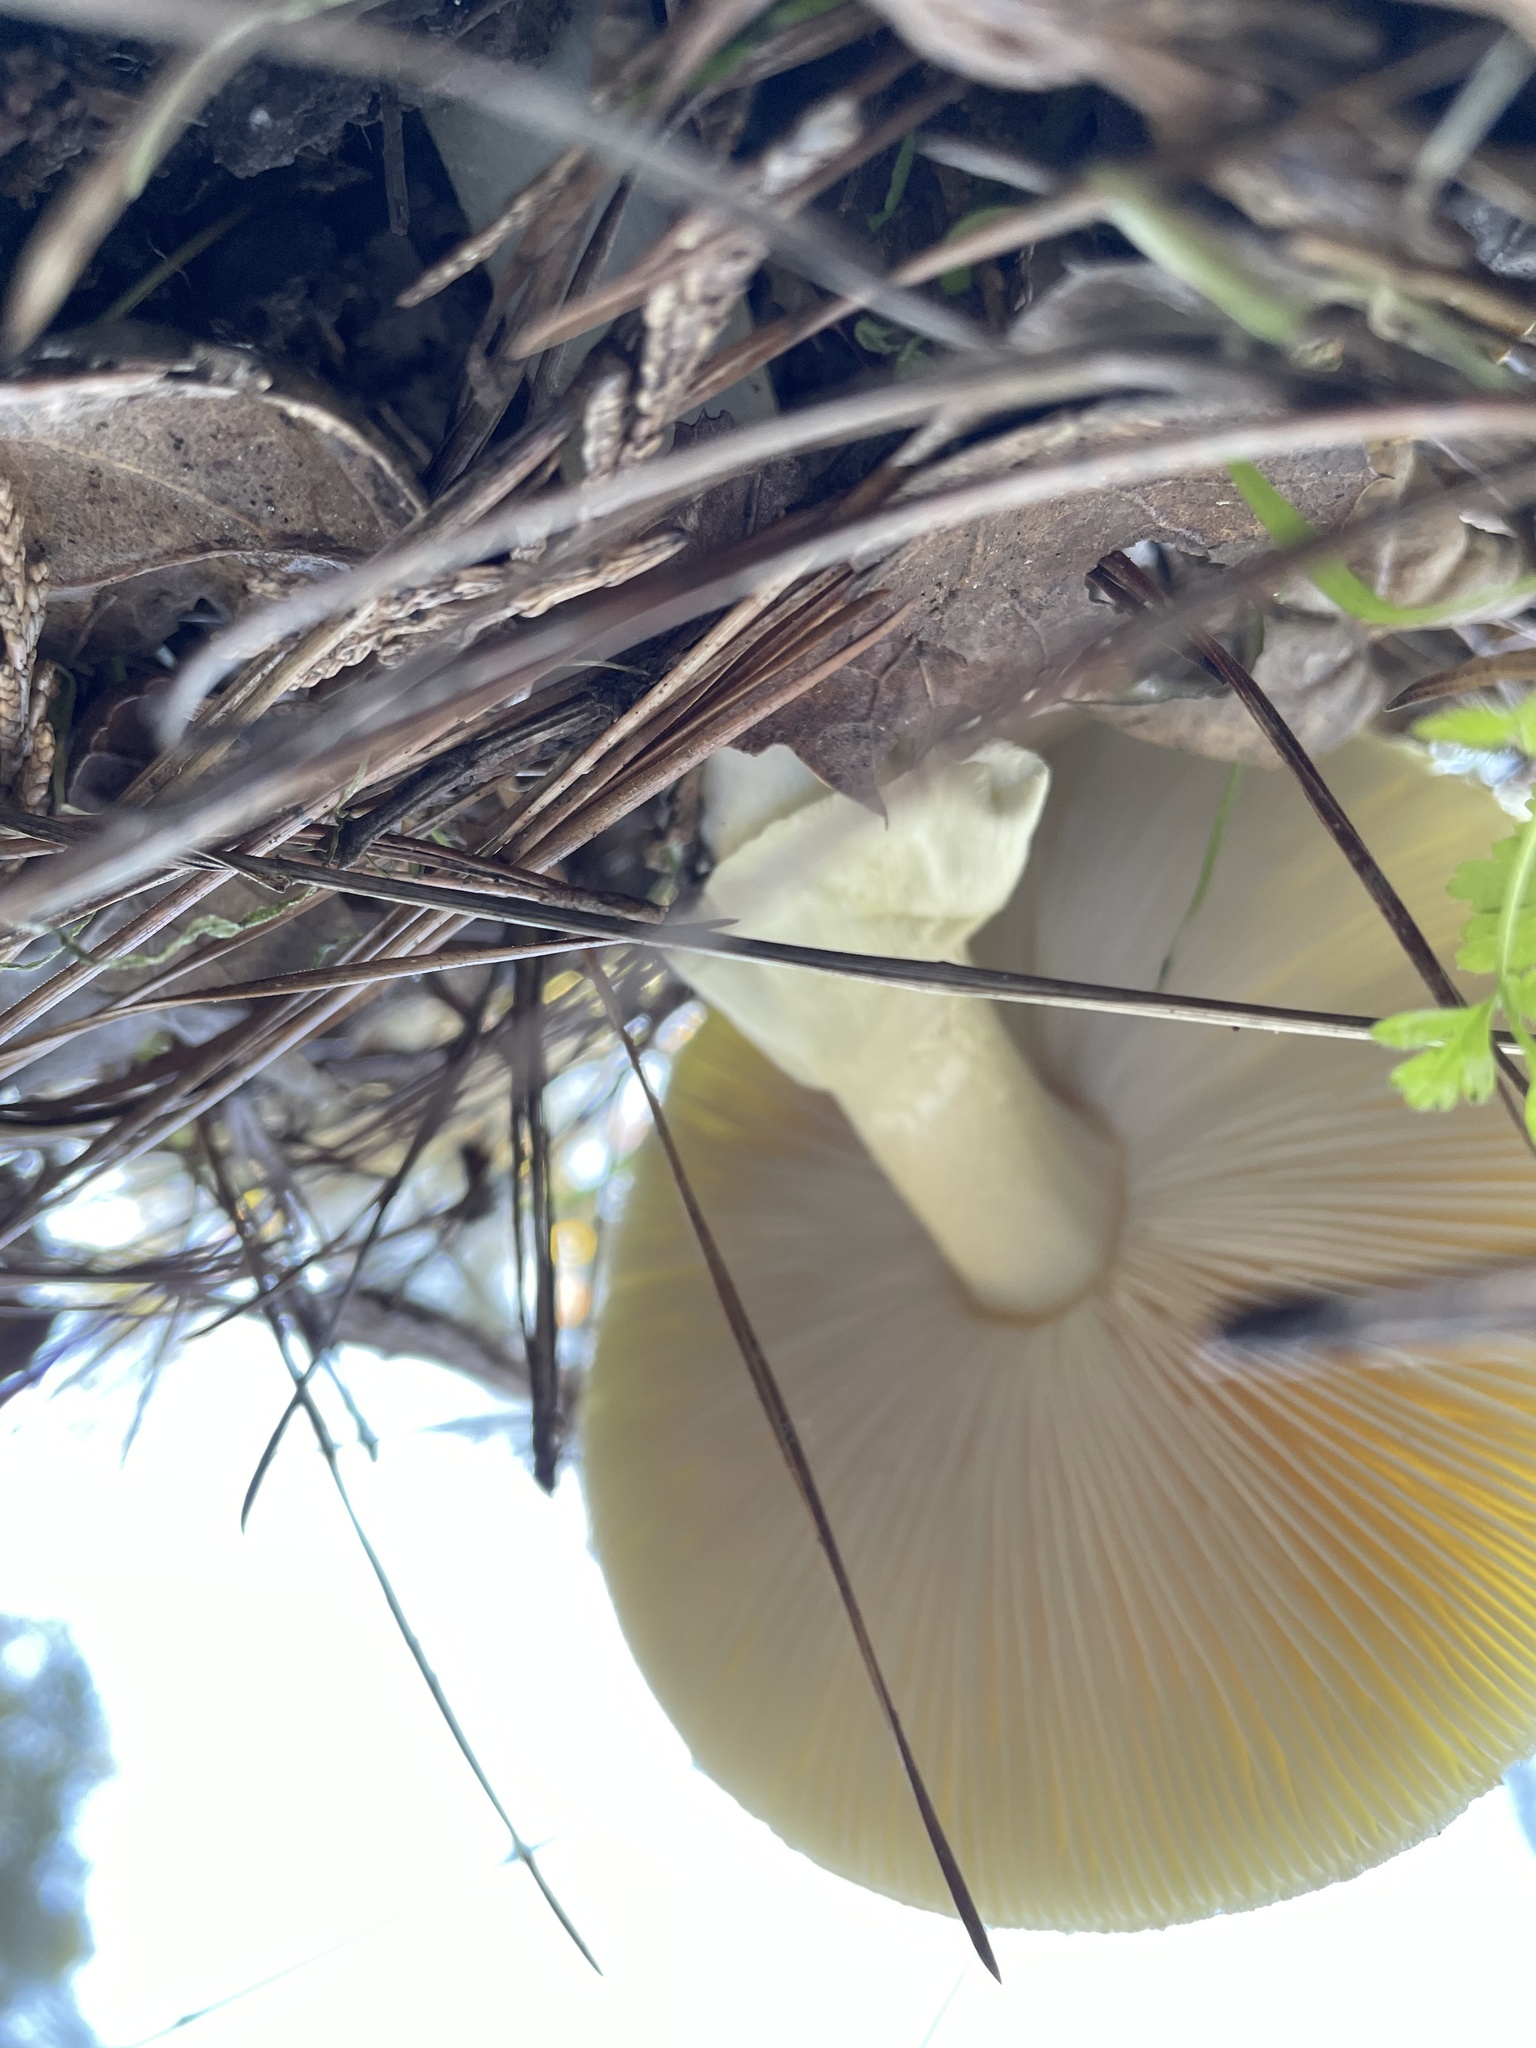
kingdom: Fungi
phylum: Basidiomycota
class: Agaricomycetes
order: Agaricales
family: Amanitaceae
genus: Amanita
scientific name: Amanita phalloides
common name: Death cap
